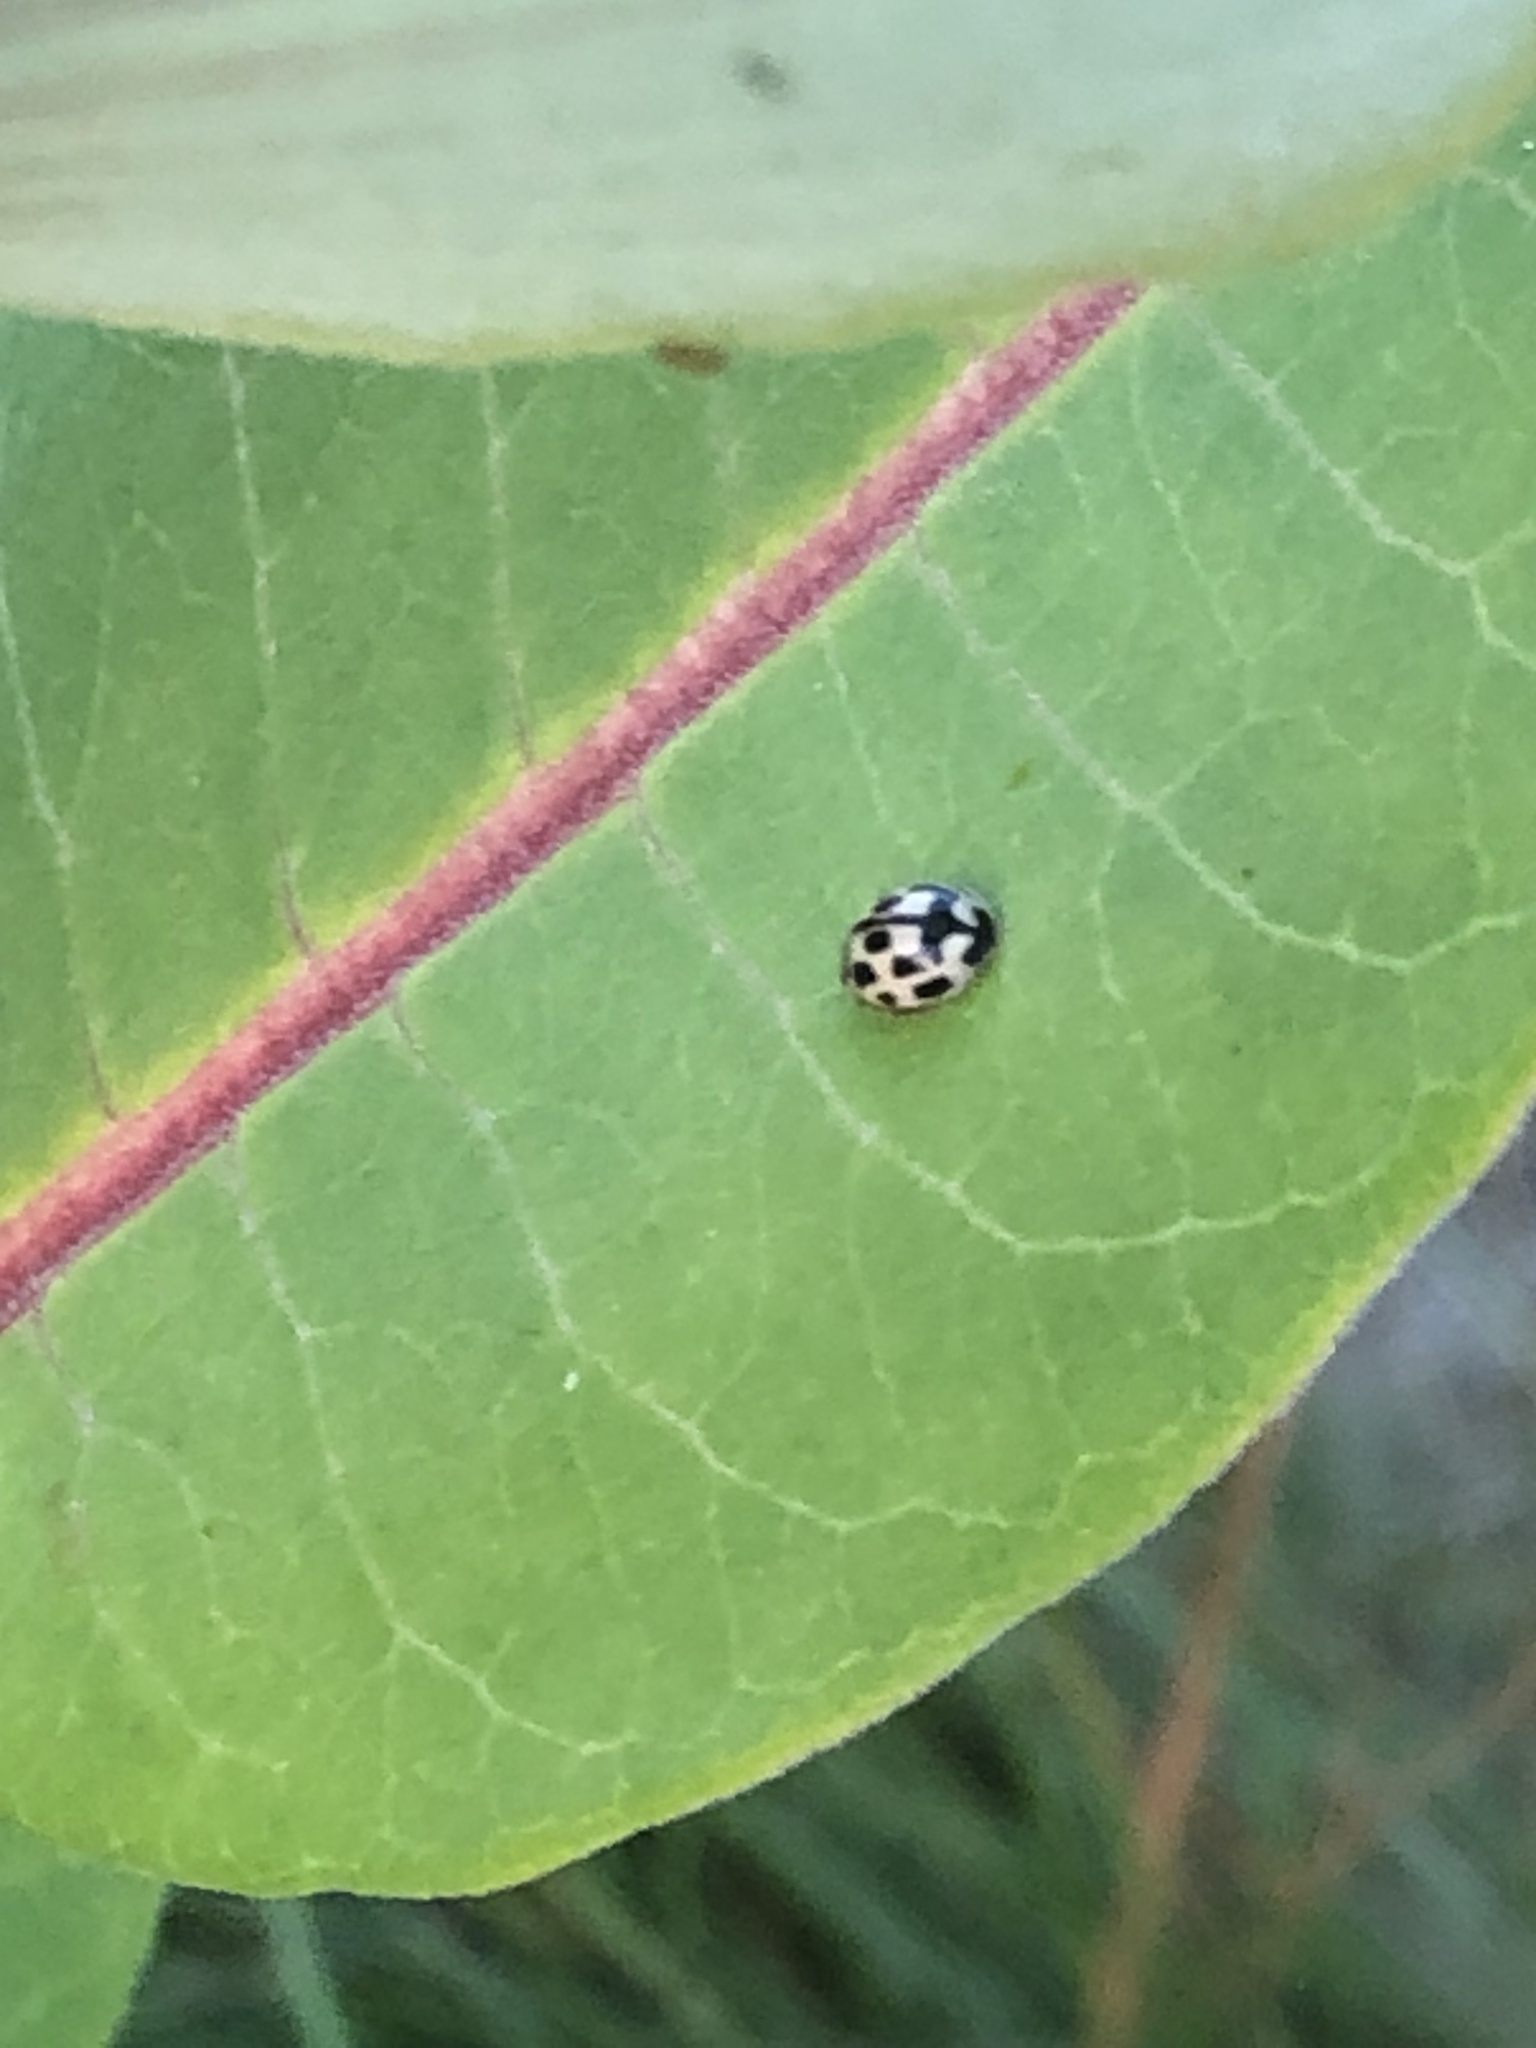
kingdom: Animalia
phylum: Arthropoda
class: Insecta
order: Coleoptera
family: Coccinellidae
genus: Propylaea
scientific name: Propylaea quatuordecimpunctata
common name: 14-spotted ladybird beetle
